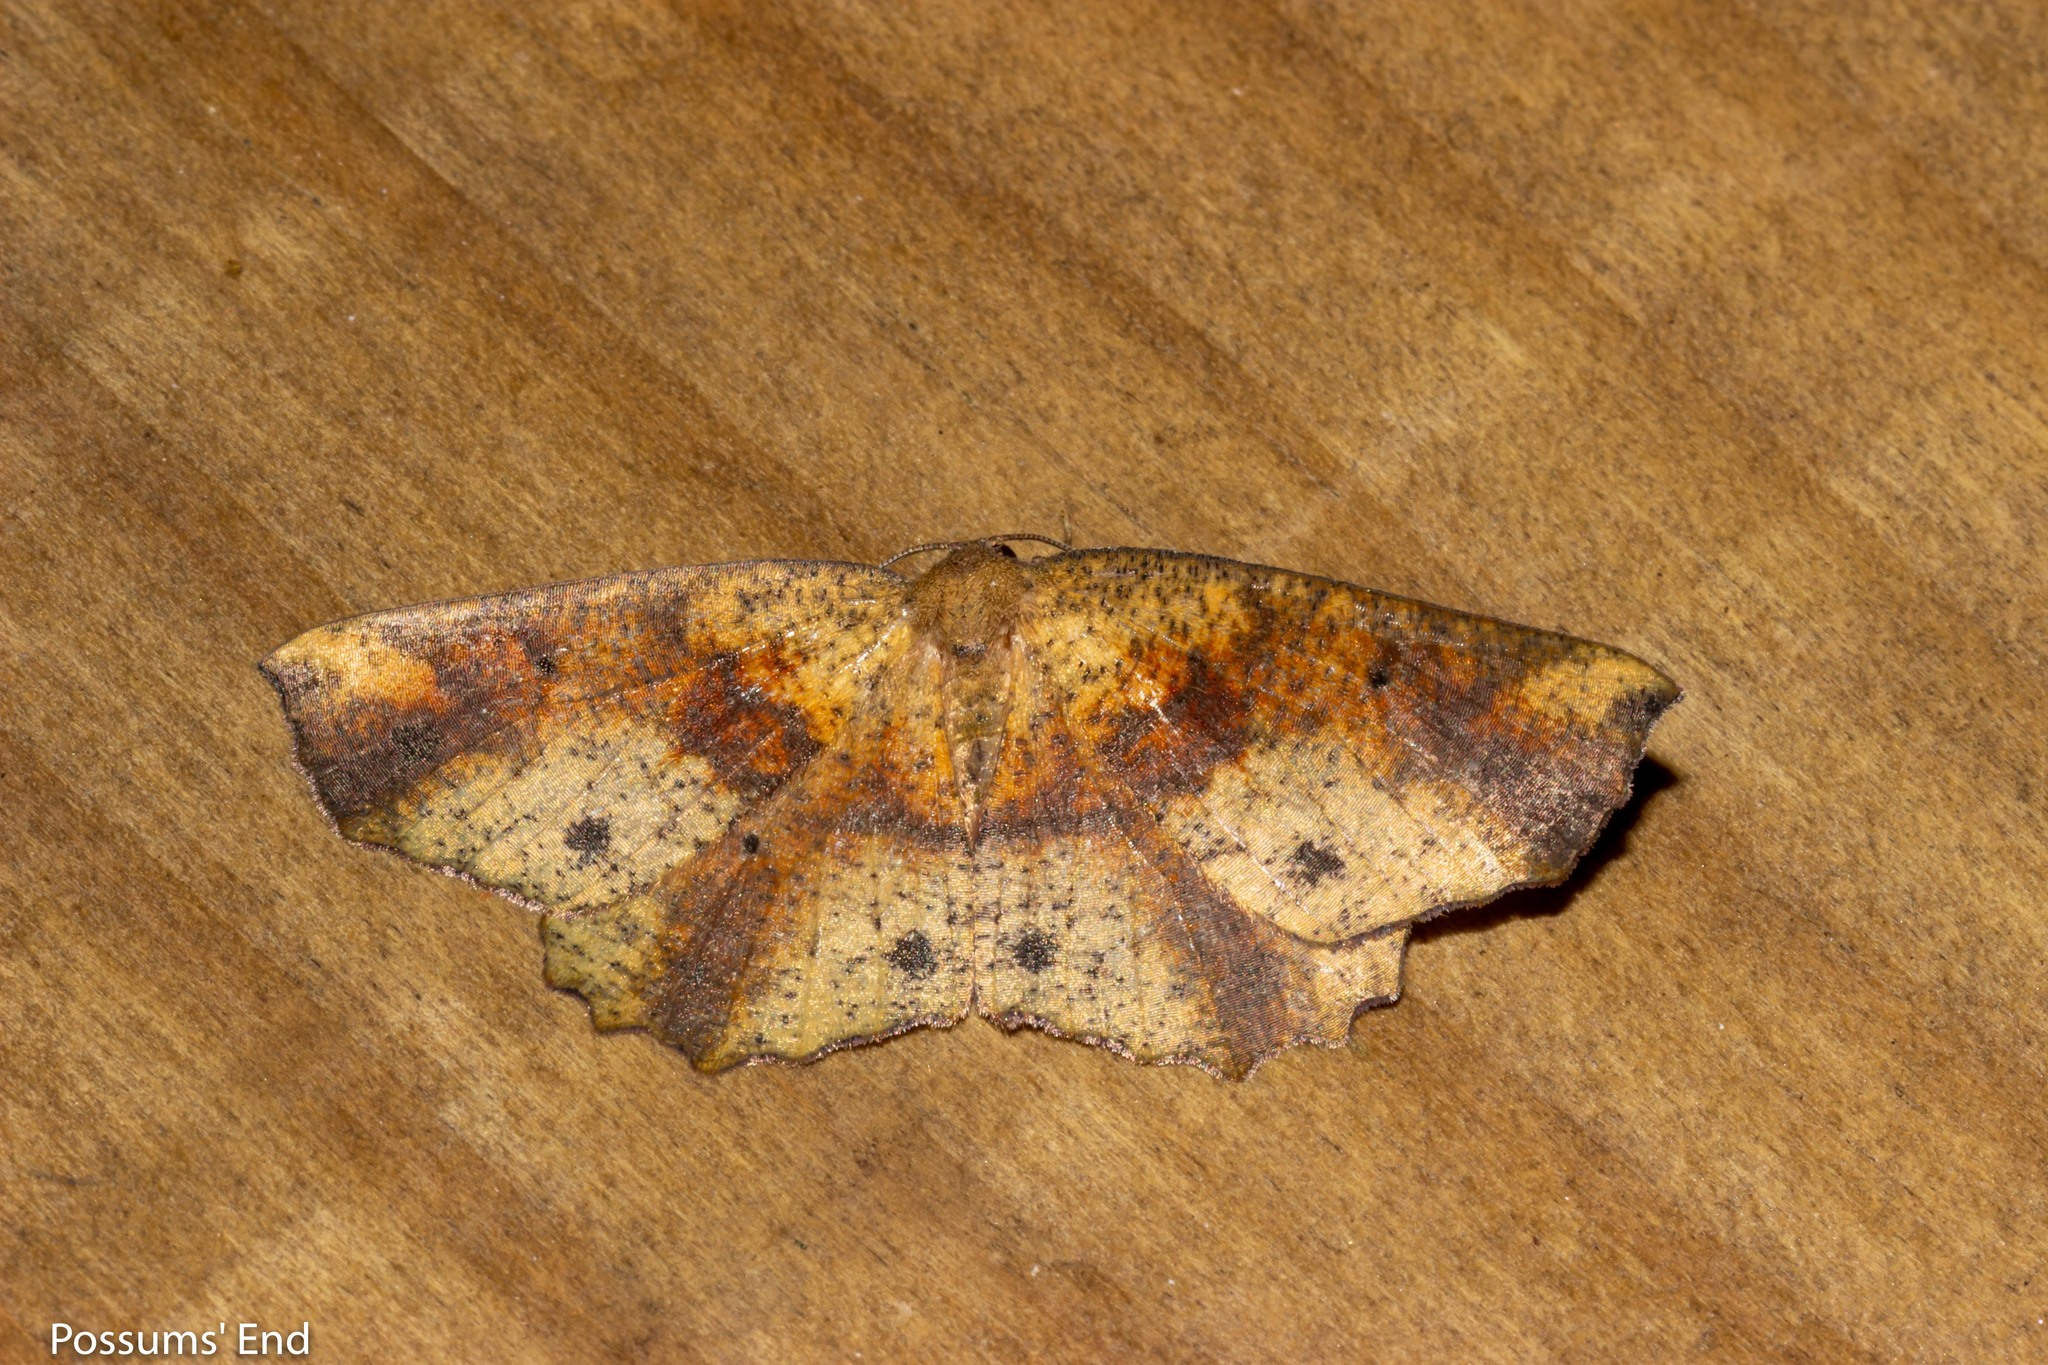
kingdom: Animalia
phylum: Arthropoda
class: Insecta
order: Lepidoptera
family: Geometridae
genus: Xyridacma
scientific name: Xyridacma ustaria
